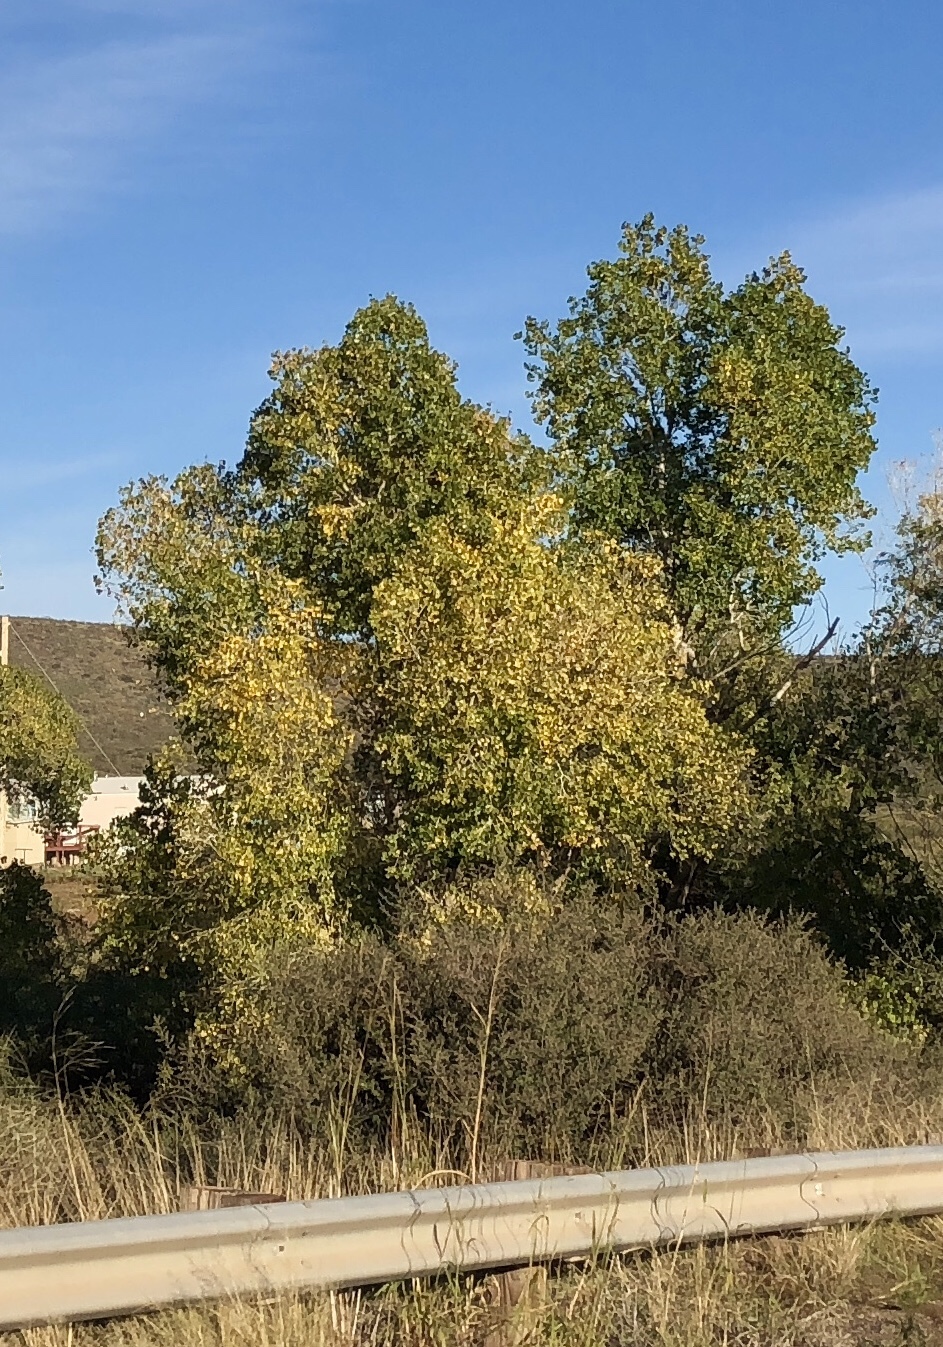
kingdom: Plantae
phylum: Tracheophyta
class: Magnoliopsida
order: Malpighiales
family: Salicaceae
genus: Populus
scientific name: Populus fremontii
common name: Fremont's cottonwood
